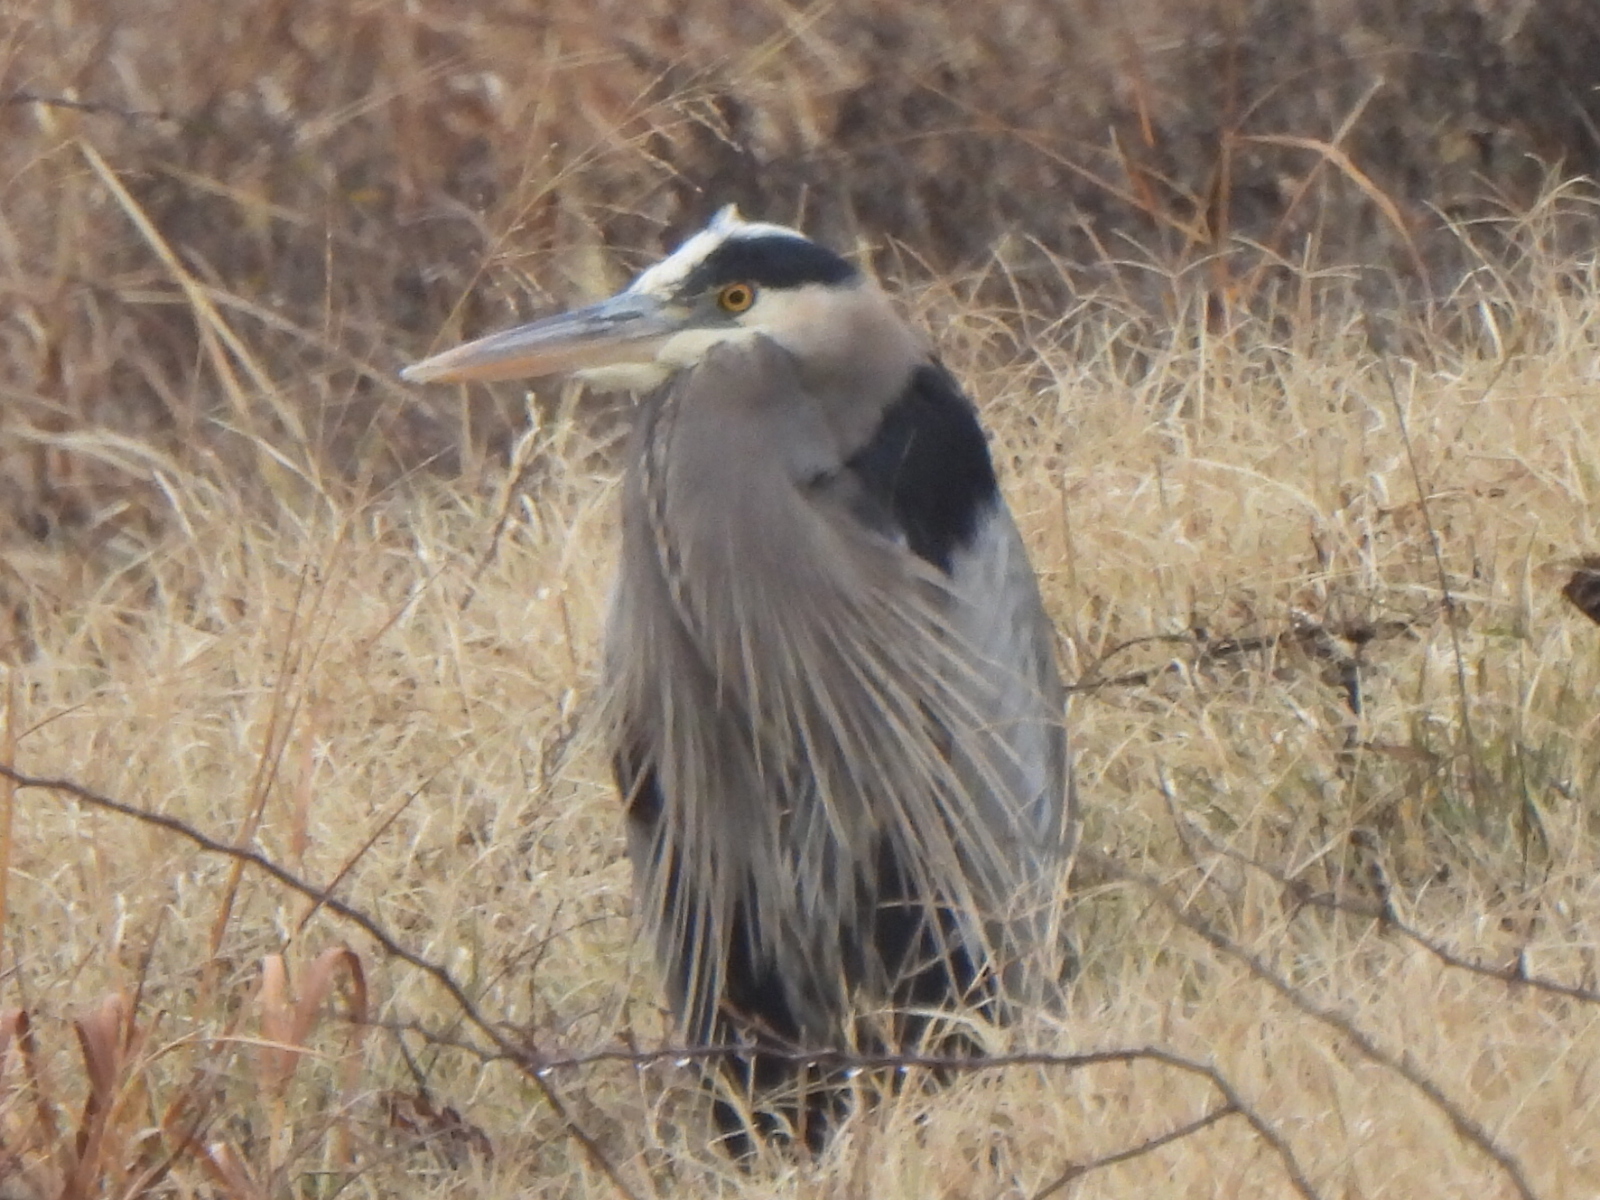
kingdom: Animalia
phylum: Chordata
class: Aves
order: Pelecaniformes
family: Ardeidae
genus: Ardea
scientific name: Ardea herodias
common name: Great blue heron
